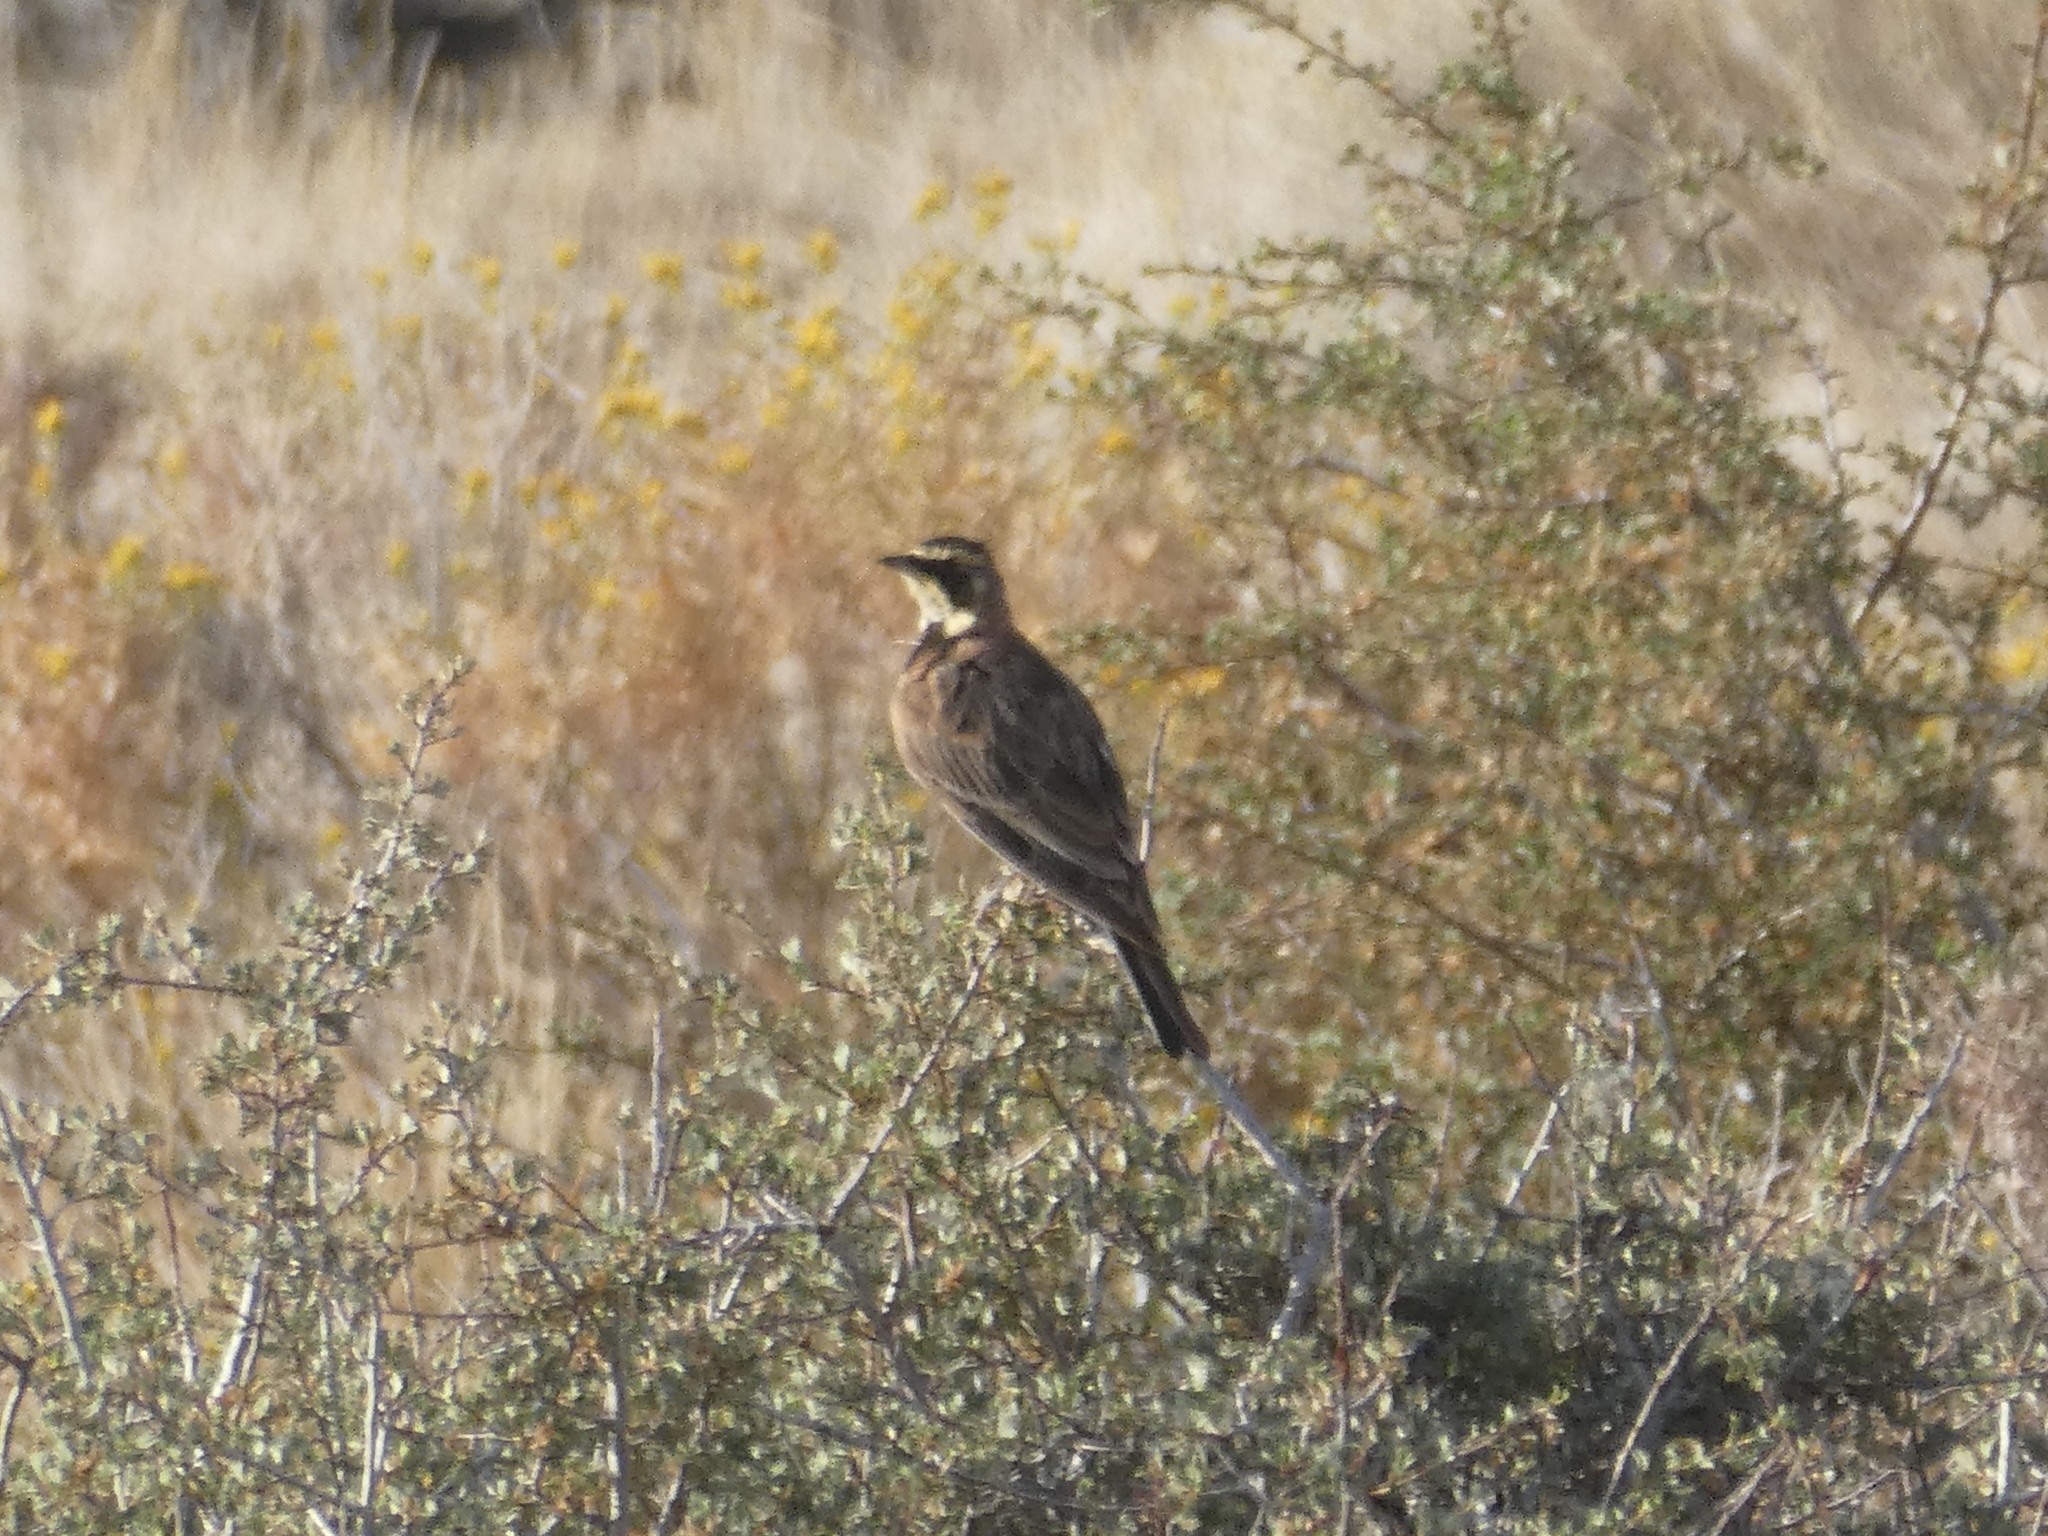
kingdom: Animalia
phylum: Chordata
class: Aves
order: Passeriformes
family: Alaudidae
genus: Eremophila
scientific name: Eremophila alpestris
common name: Horned lark
